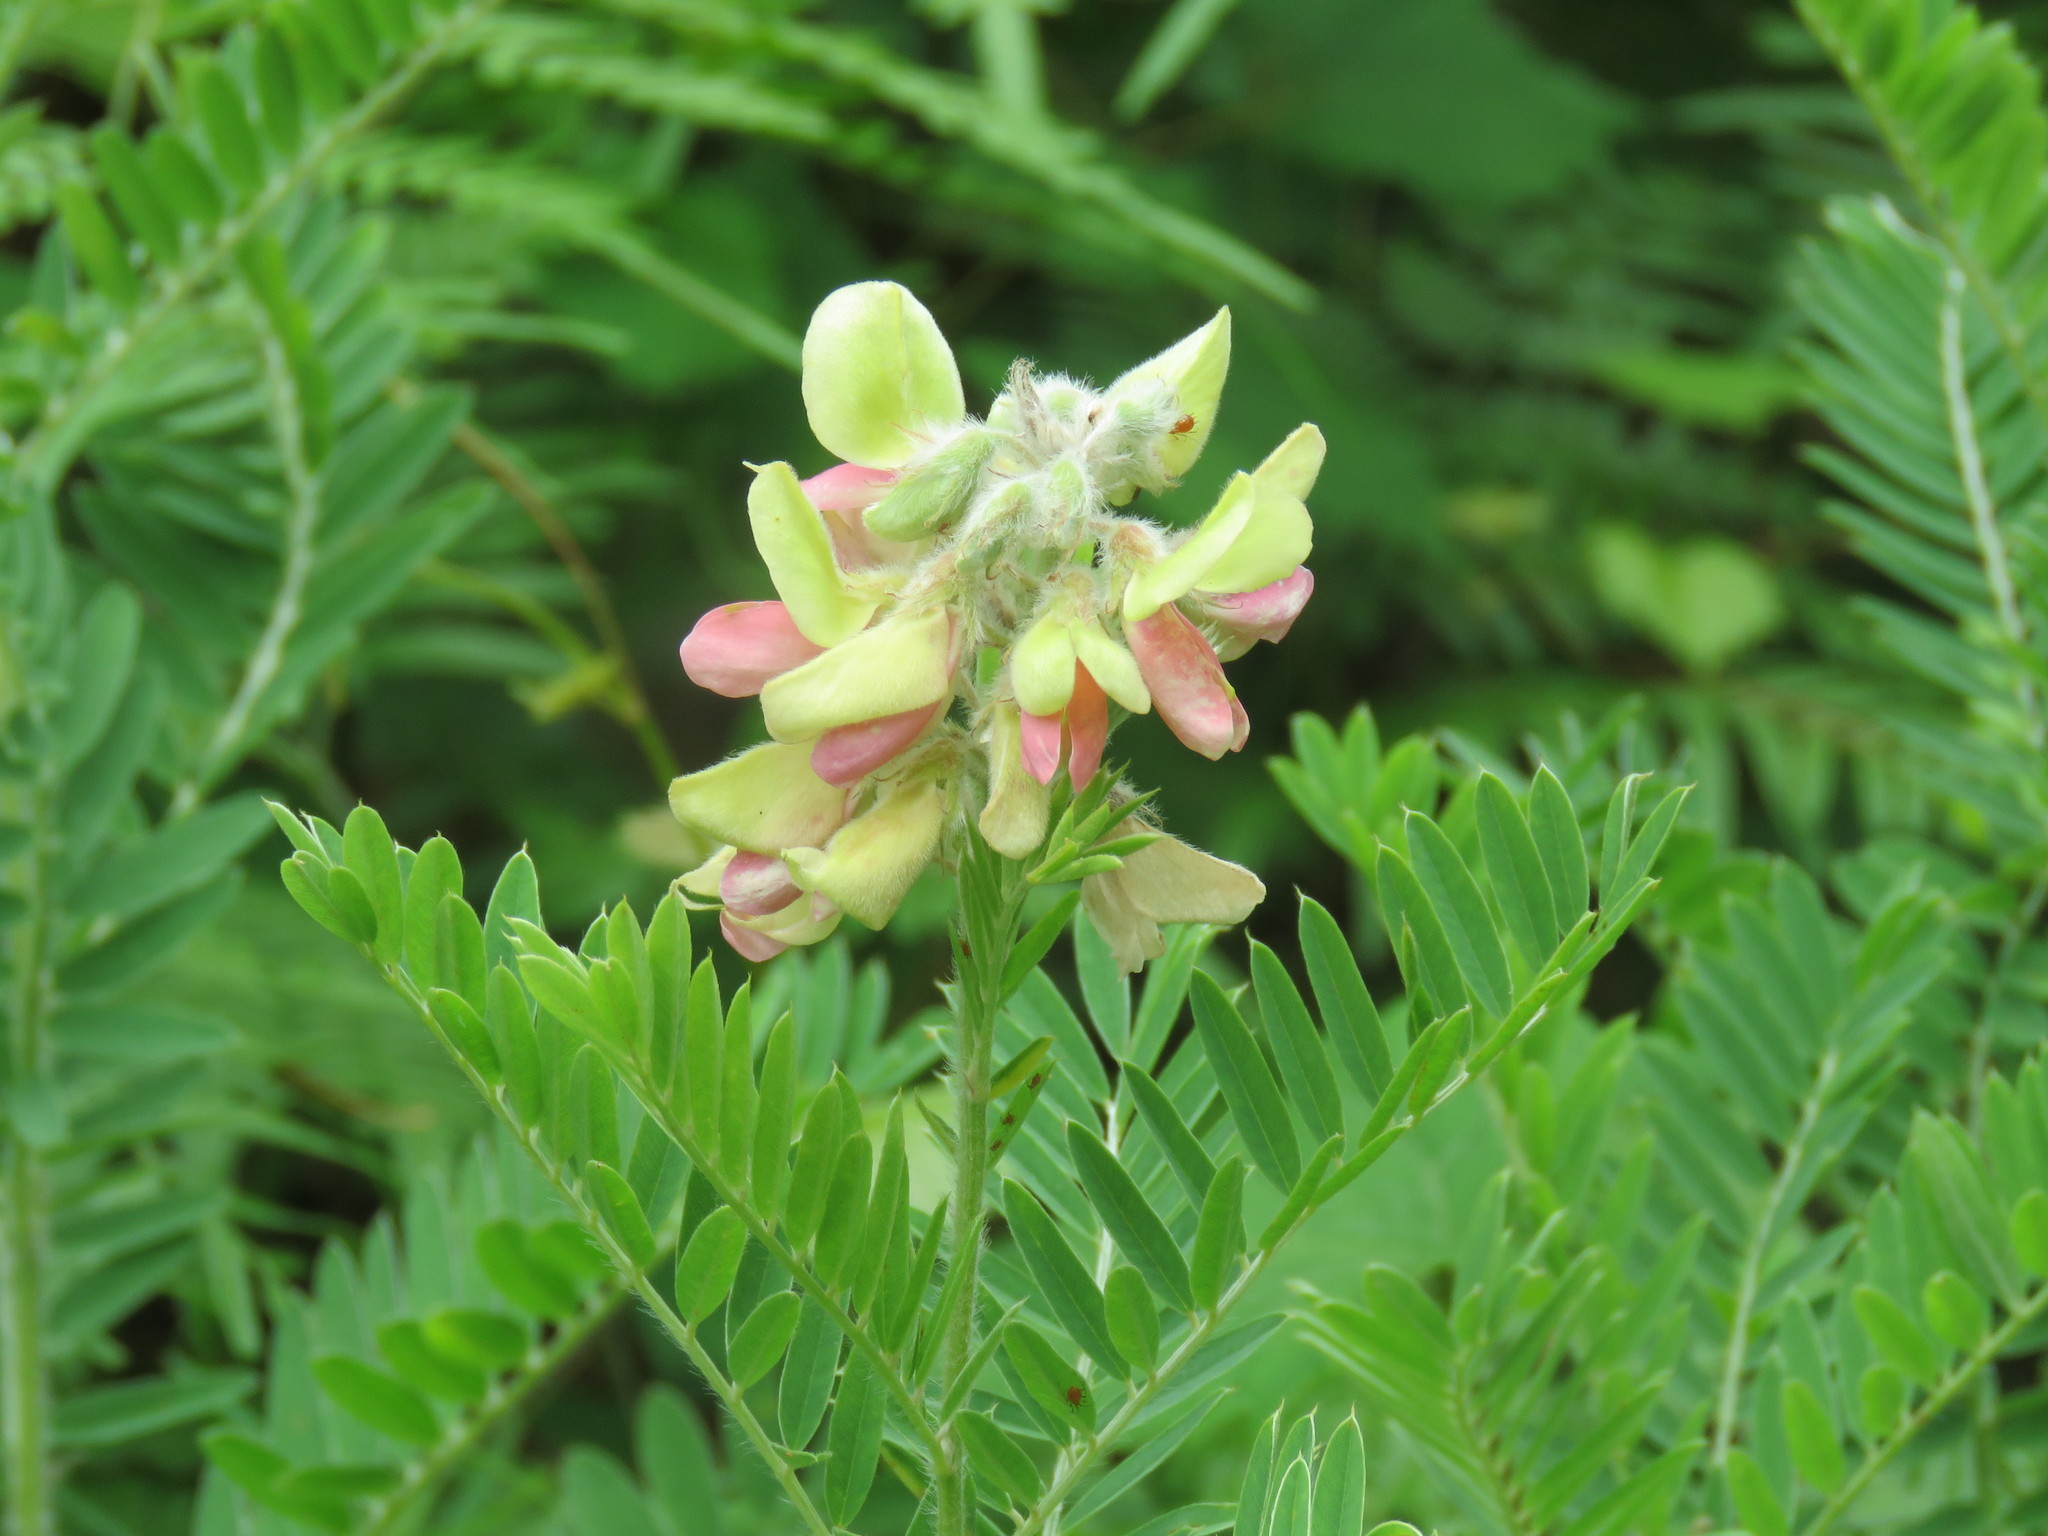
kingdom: Plantae
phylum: Tracheophyta
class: Magnoliopsida
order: Fabales
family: Fabaceae
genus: Tephrosia
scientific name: Tephrosia virginiana
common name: Rabbit-pea
